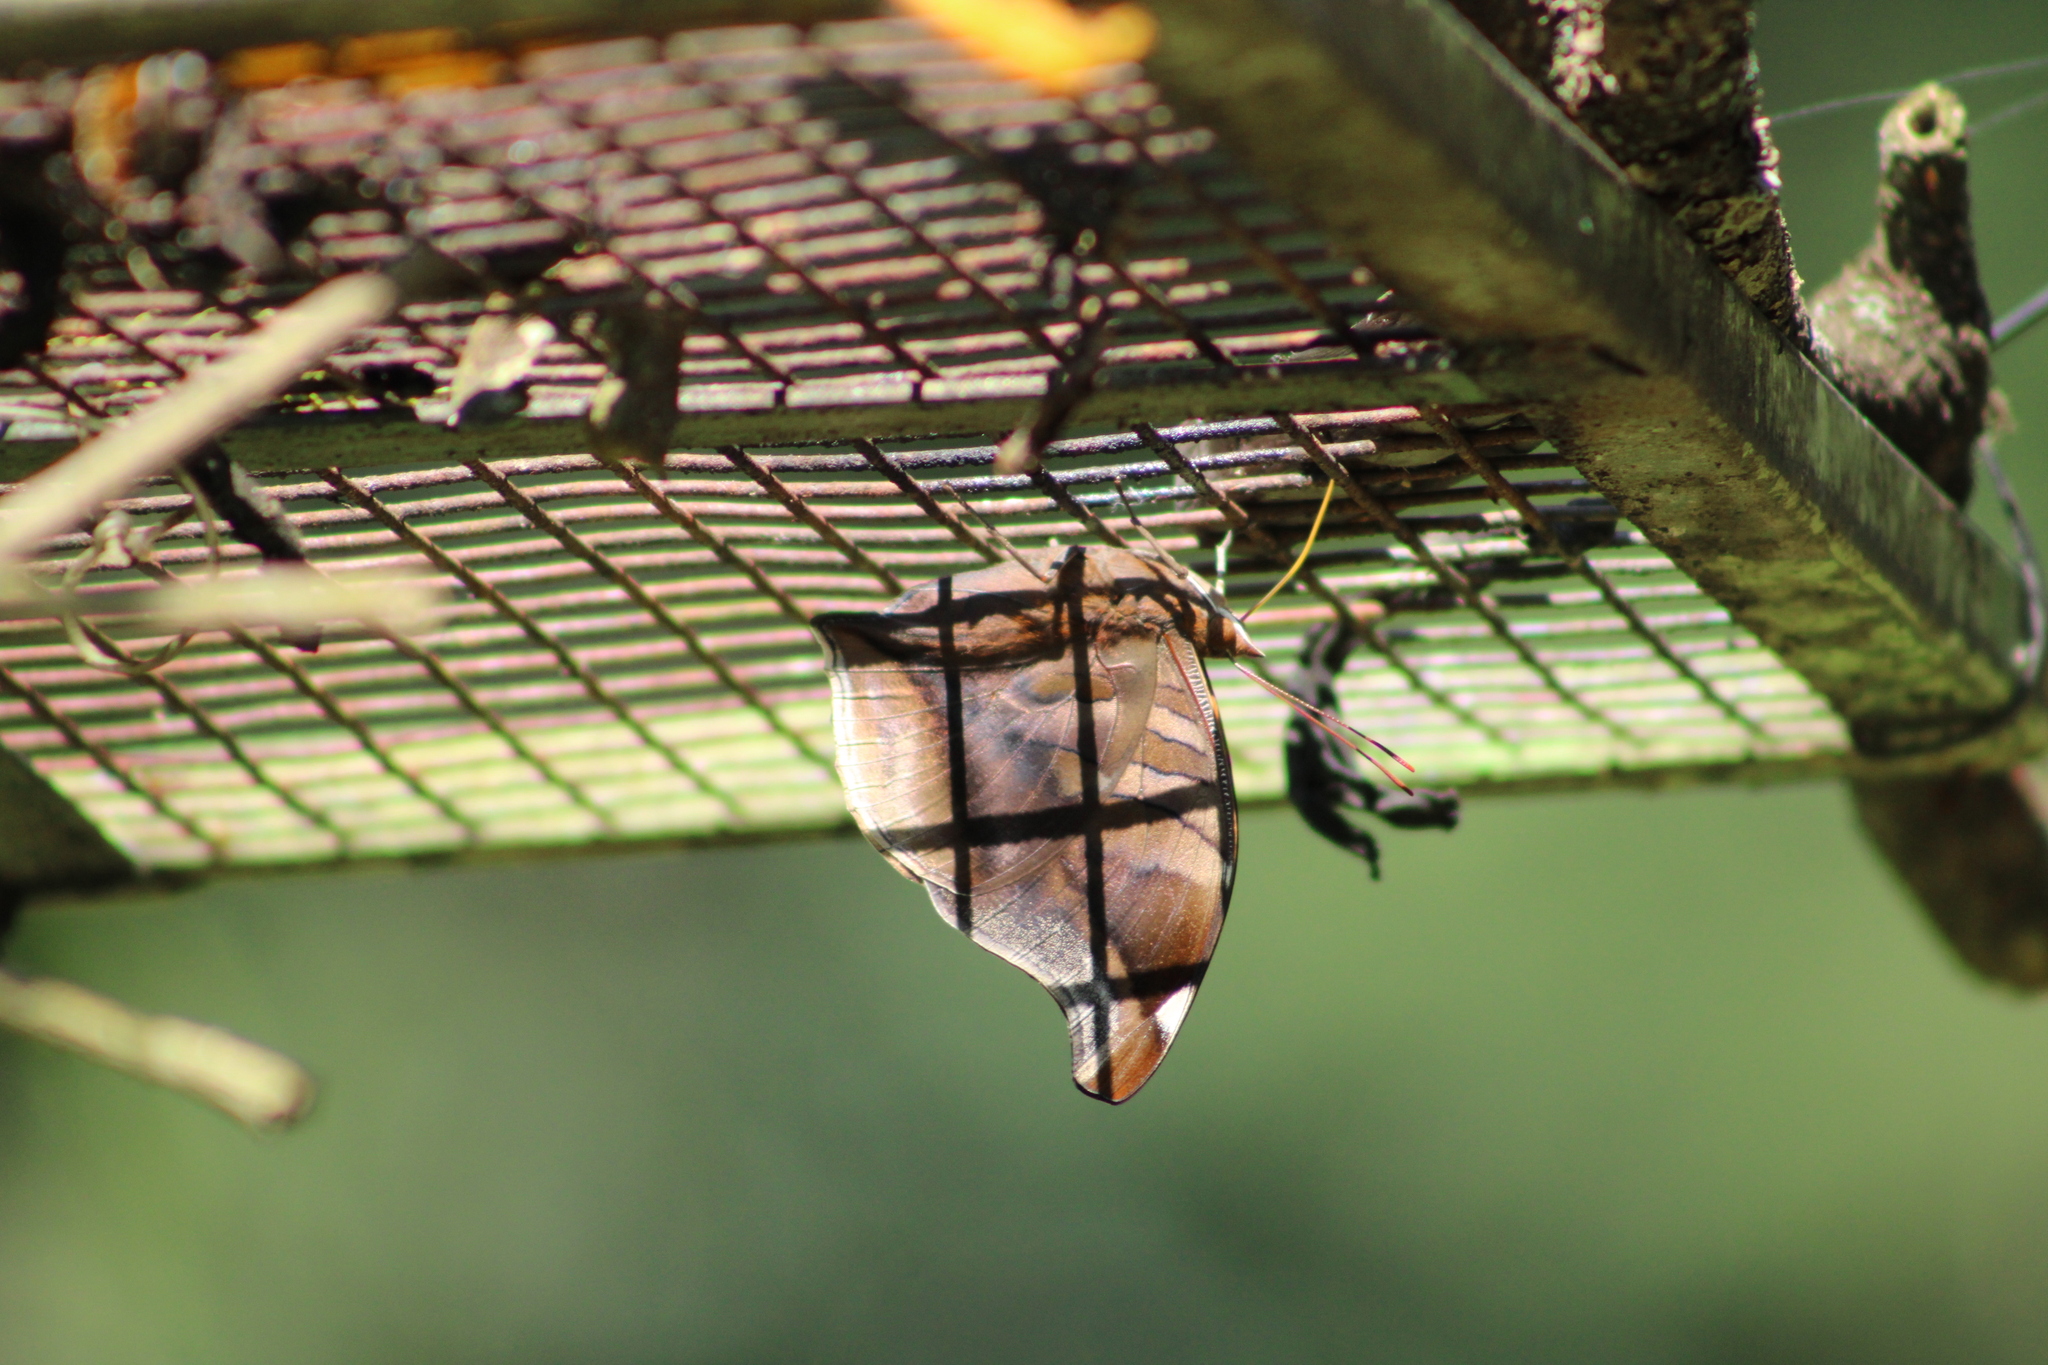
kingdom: Animalia
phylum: Arthropoda
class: Insecta
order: Lepidoptera
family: Nymphalidae
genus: Historis
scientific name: Historis odius
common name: Orion cecropian
